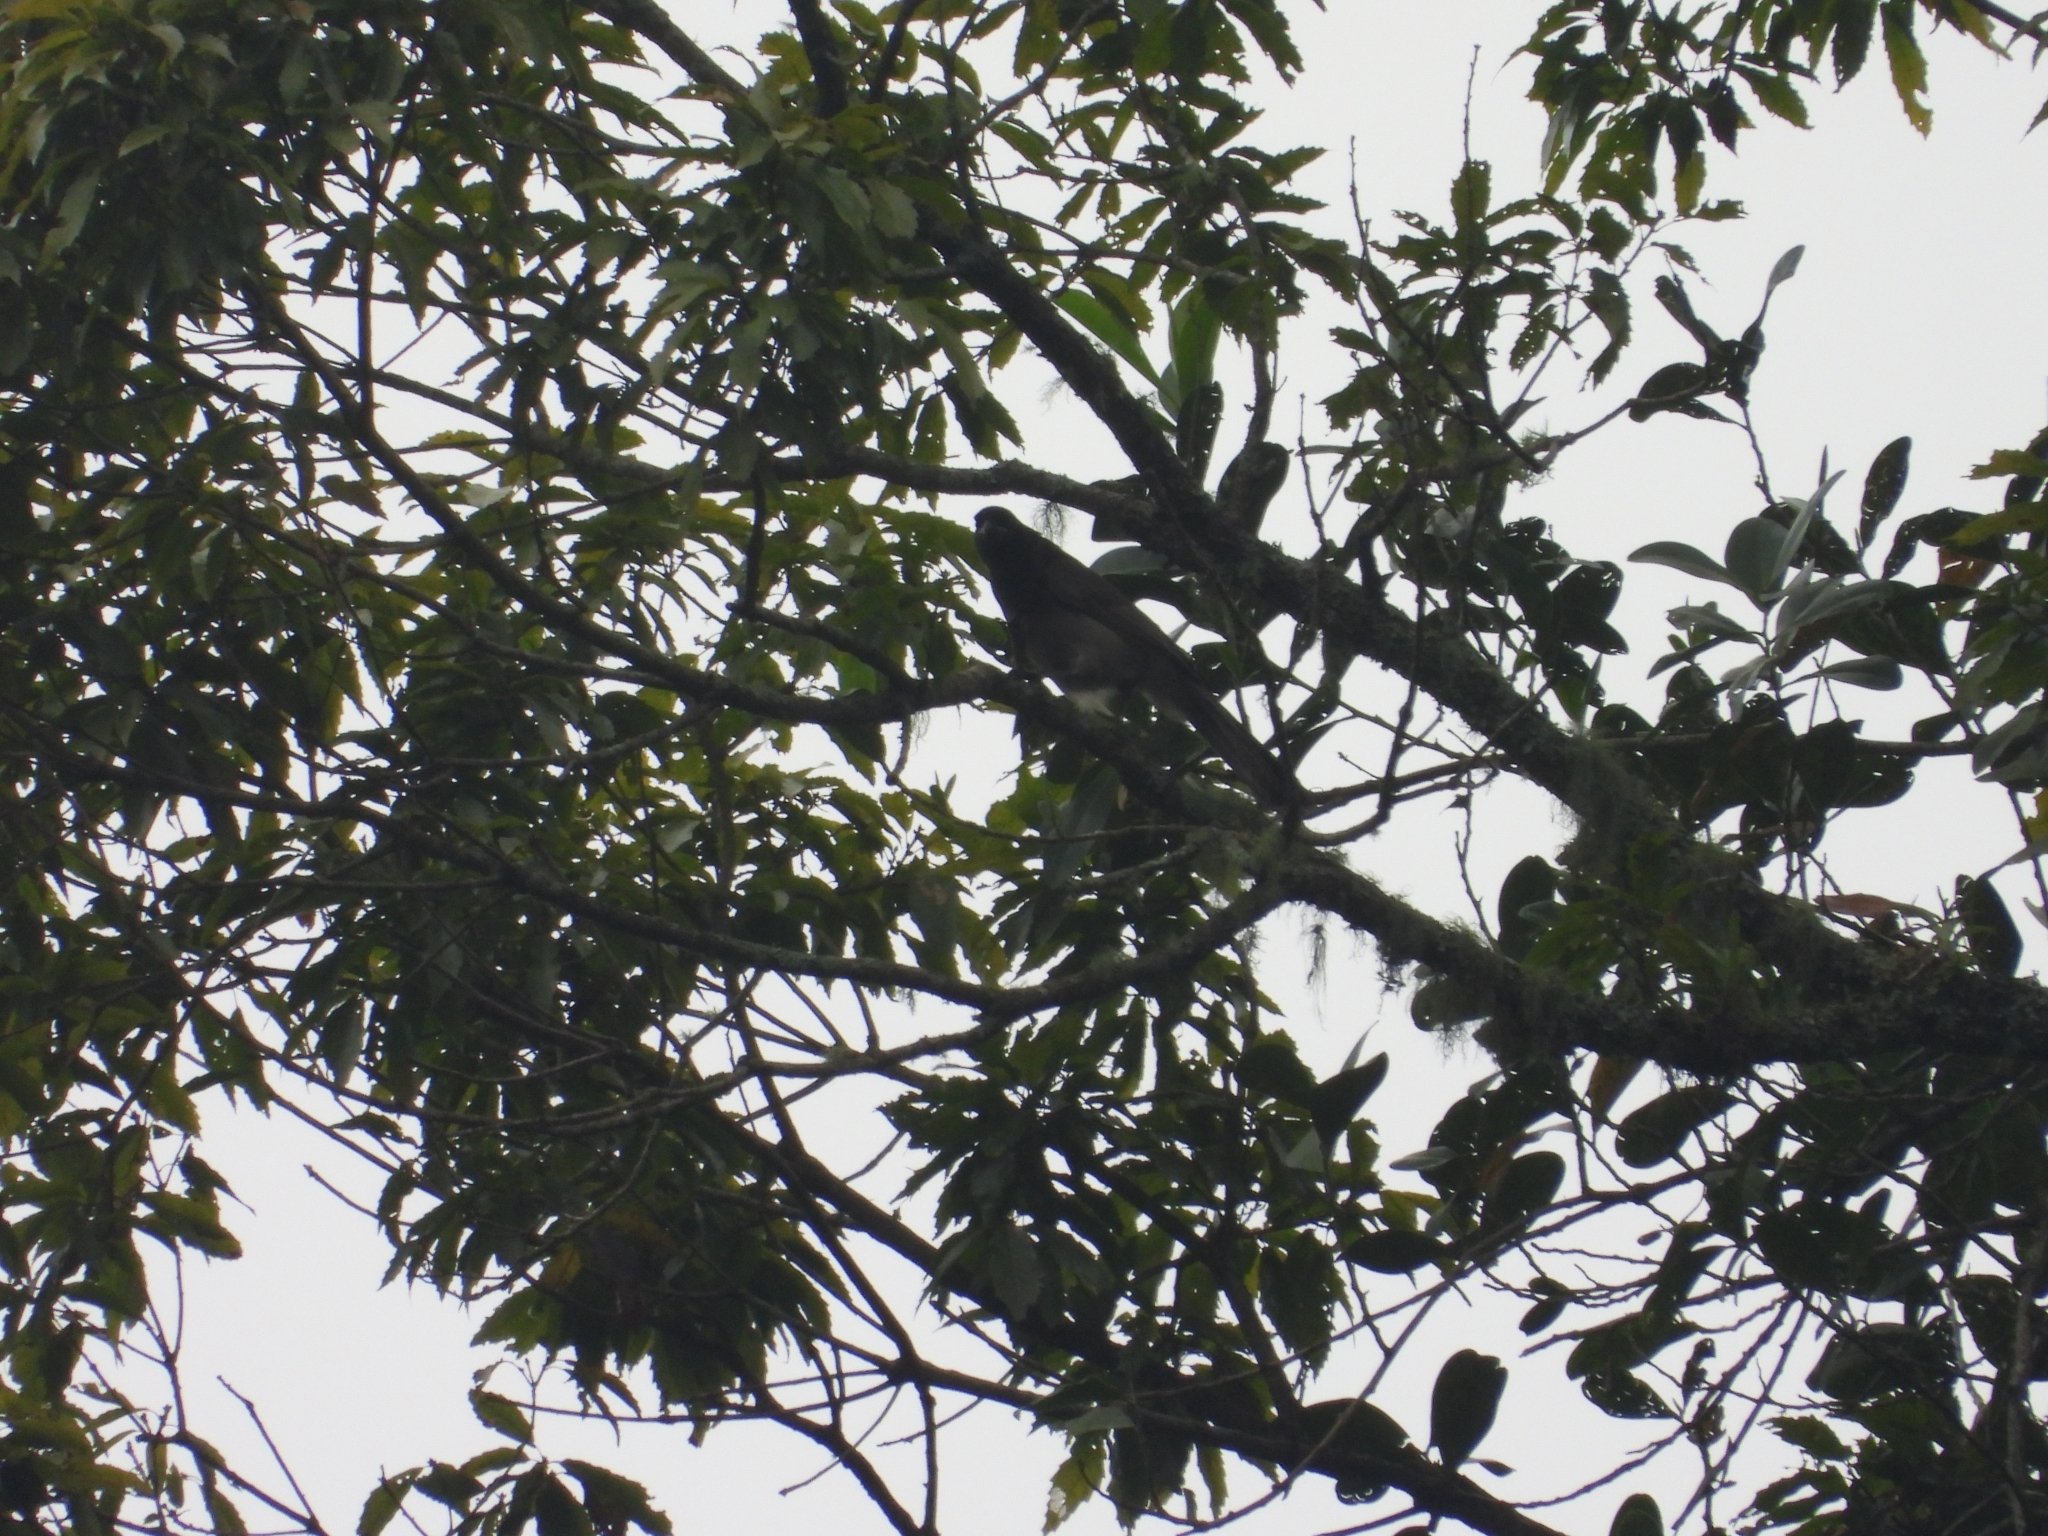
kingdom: Animalia
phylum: Chordata
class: Aves
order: Passeriformes
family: Corvidae
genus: Psilorhinus
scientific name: Psilorhinus morio
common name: Brown jay
